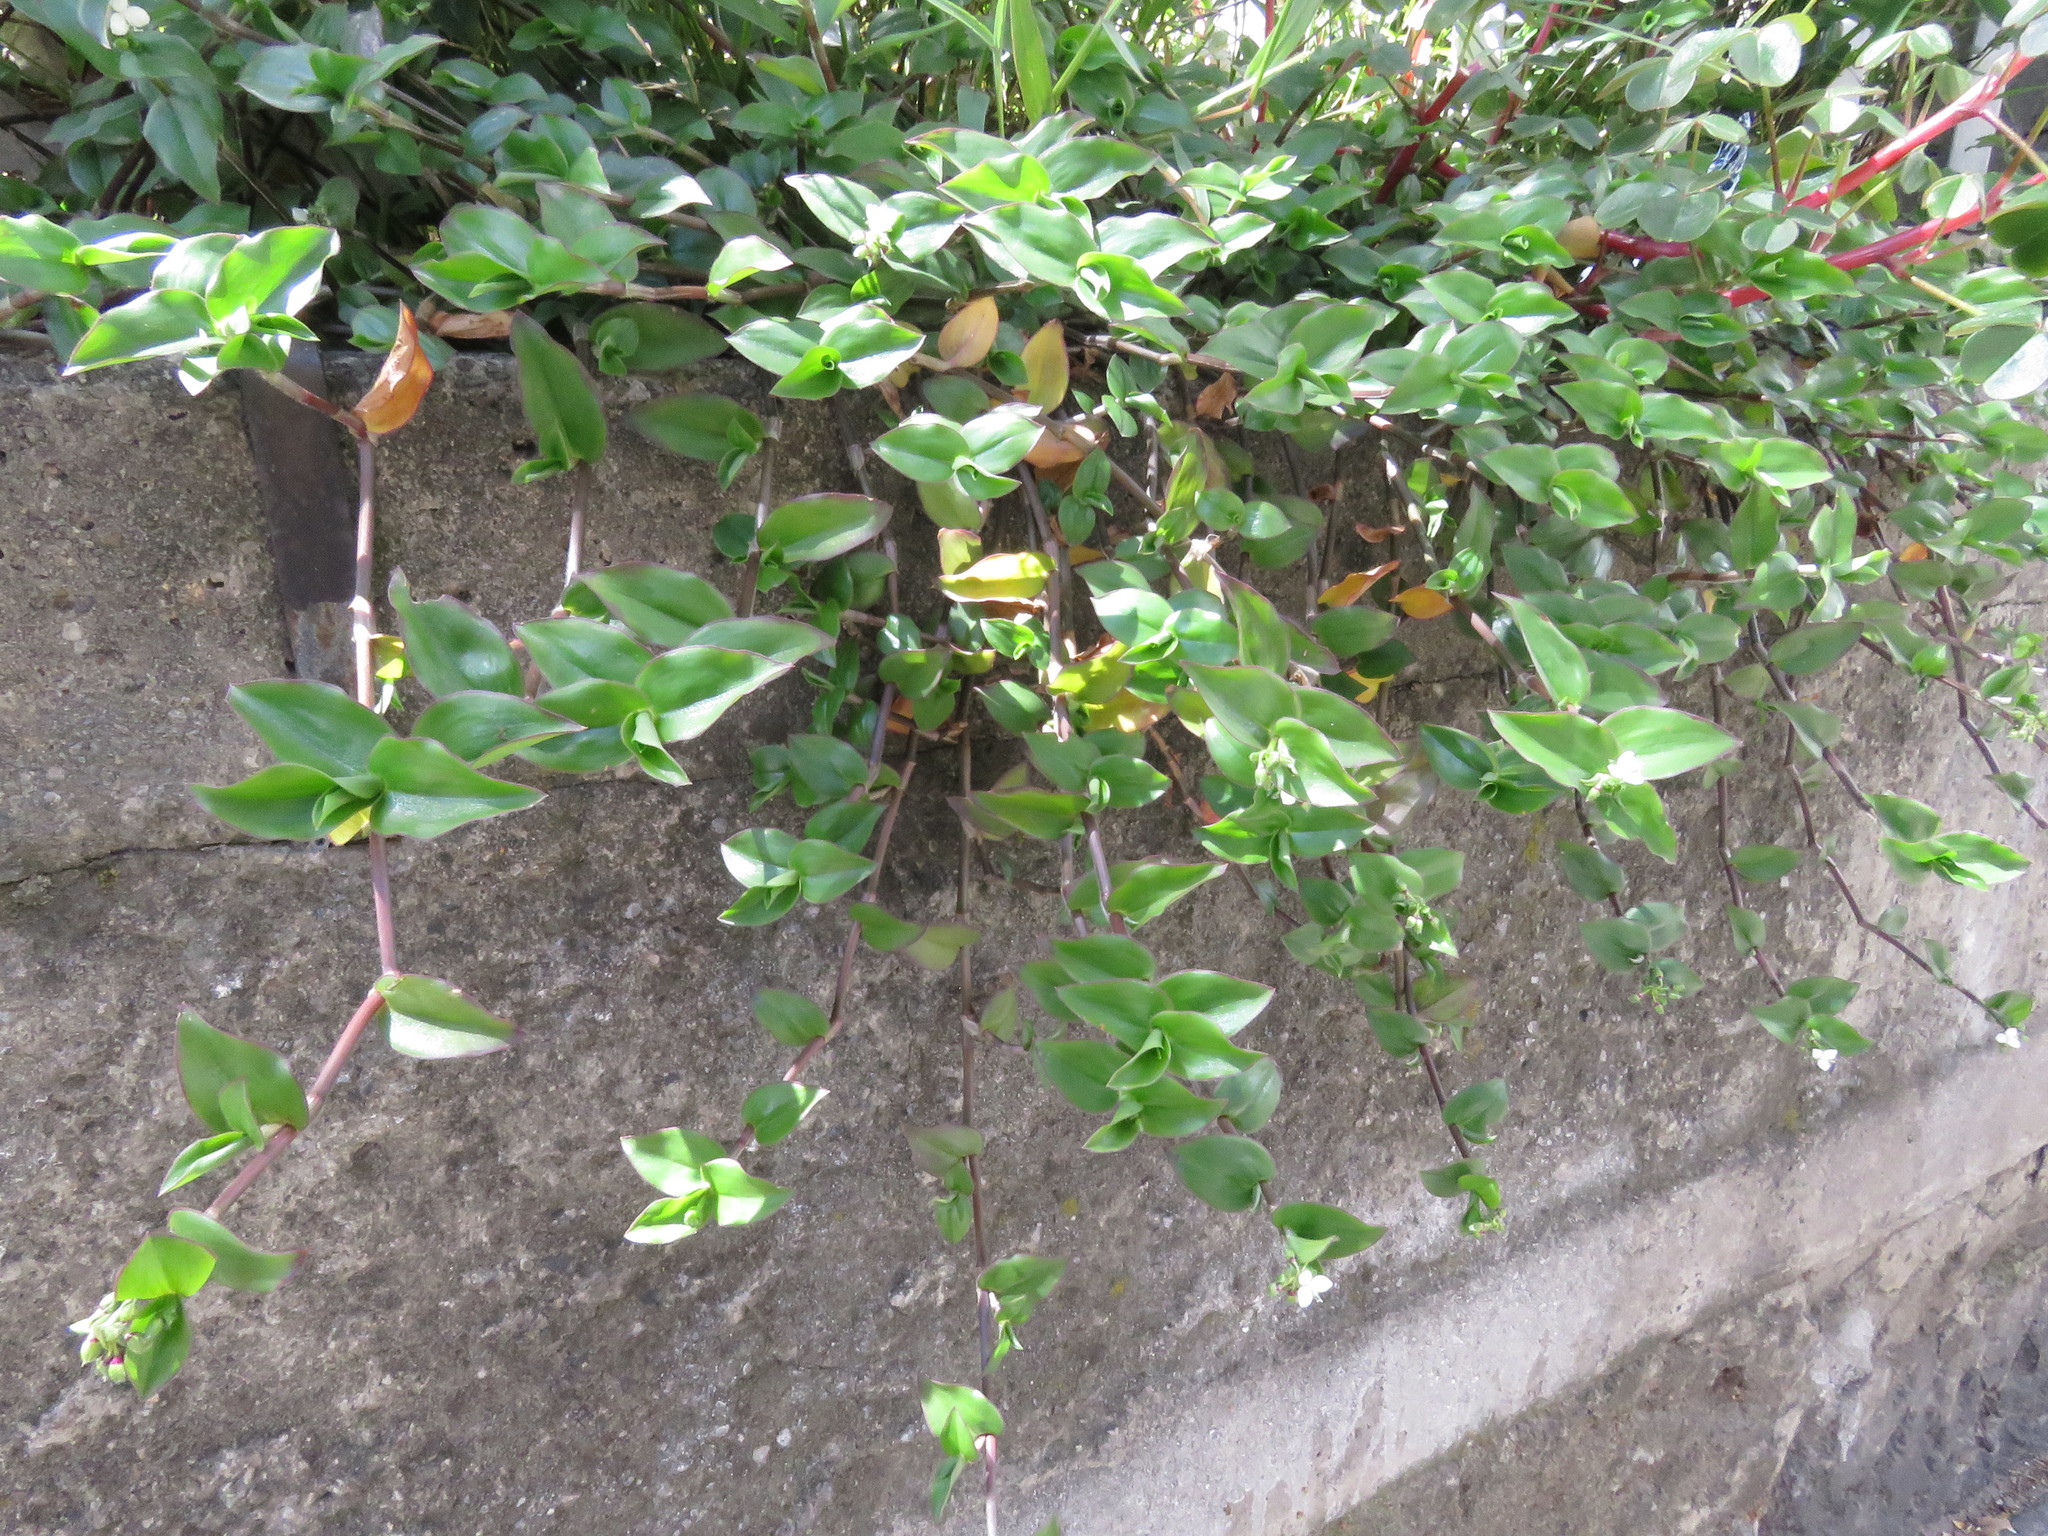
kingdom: Plantae
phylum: Tracheophyta
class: Liliopsida
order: Commelinales
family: Commelinaceae
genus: Callisia
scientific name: Callisia gracilis
